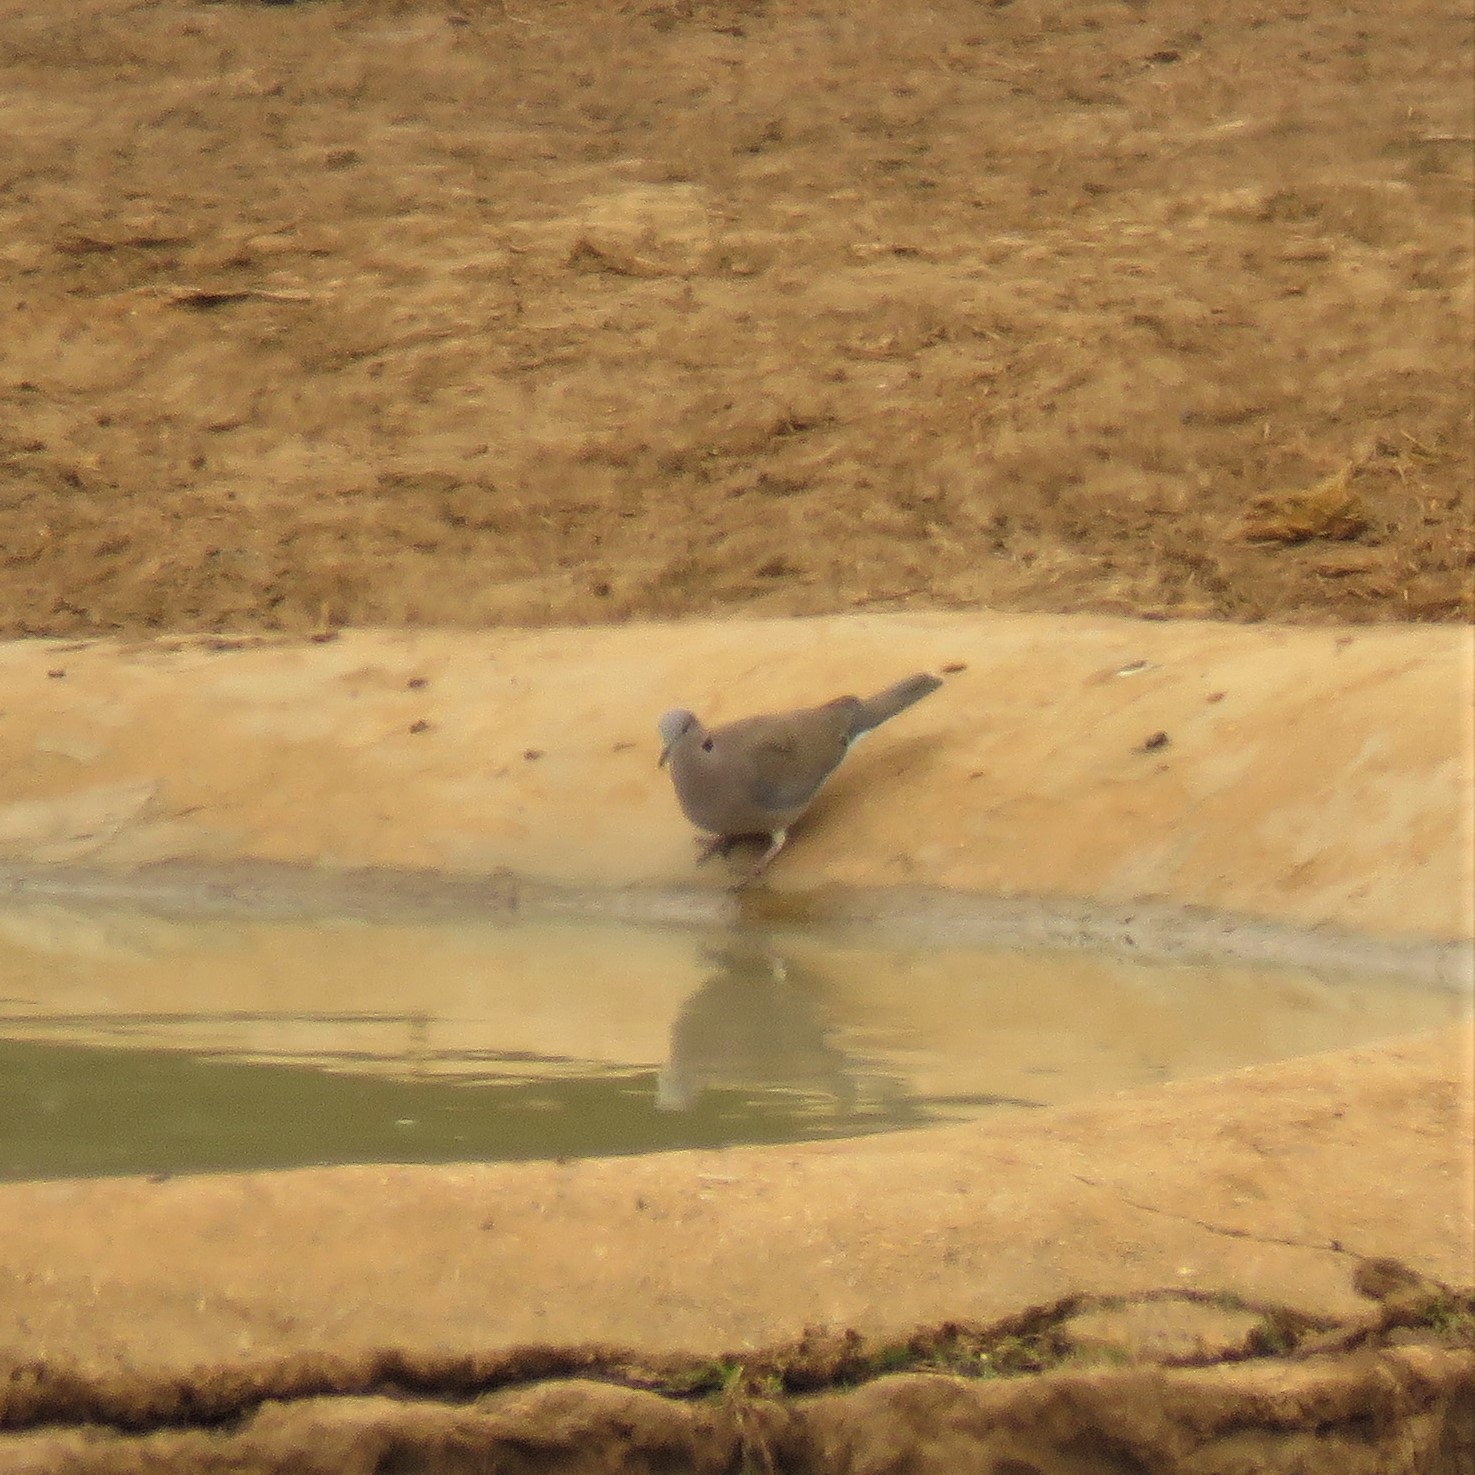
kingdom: Animalia
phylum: Chordata
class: Aves
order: Columbiformes
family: Columbidae
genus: Streptopelia
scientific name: Streptopelia capicola
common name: Ring-necked dove
